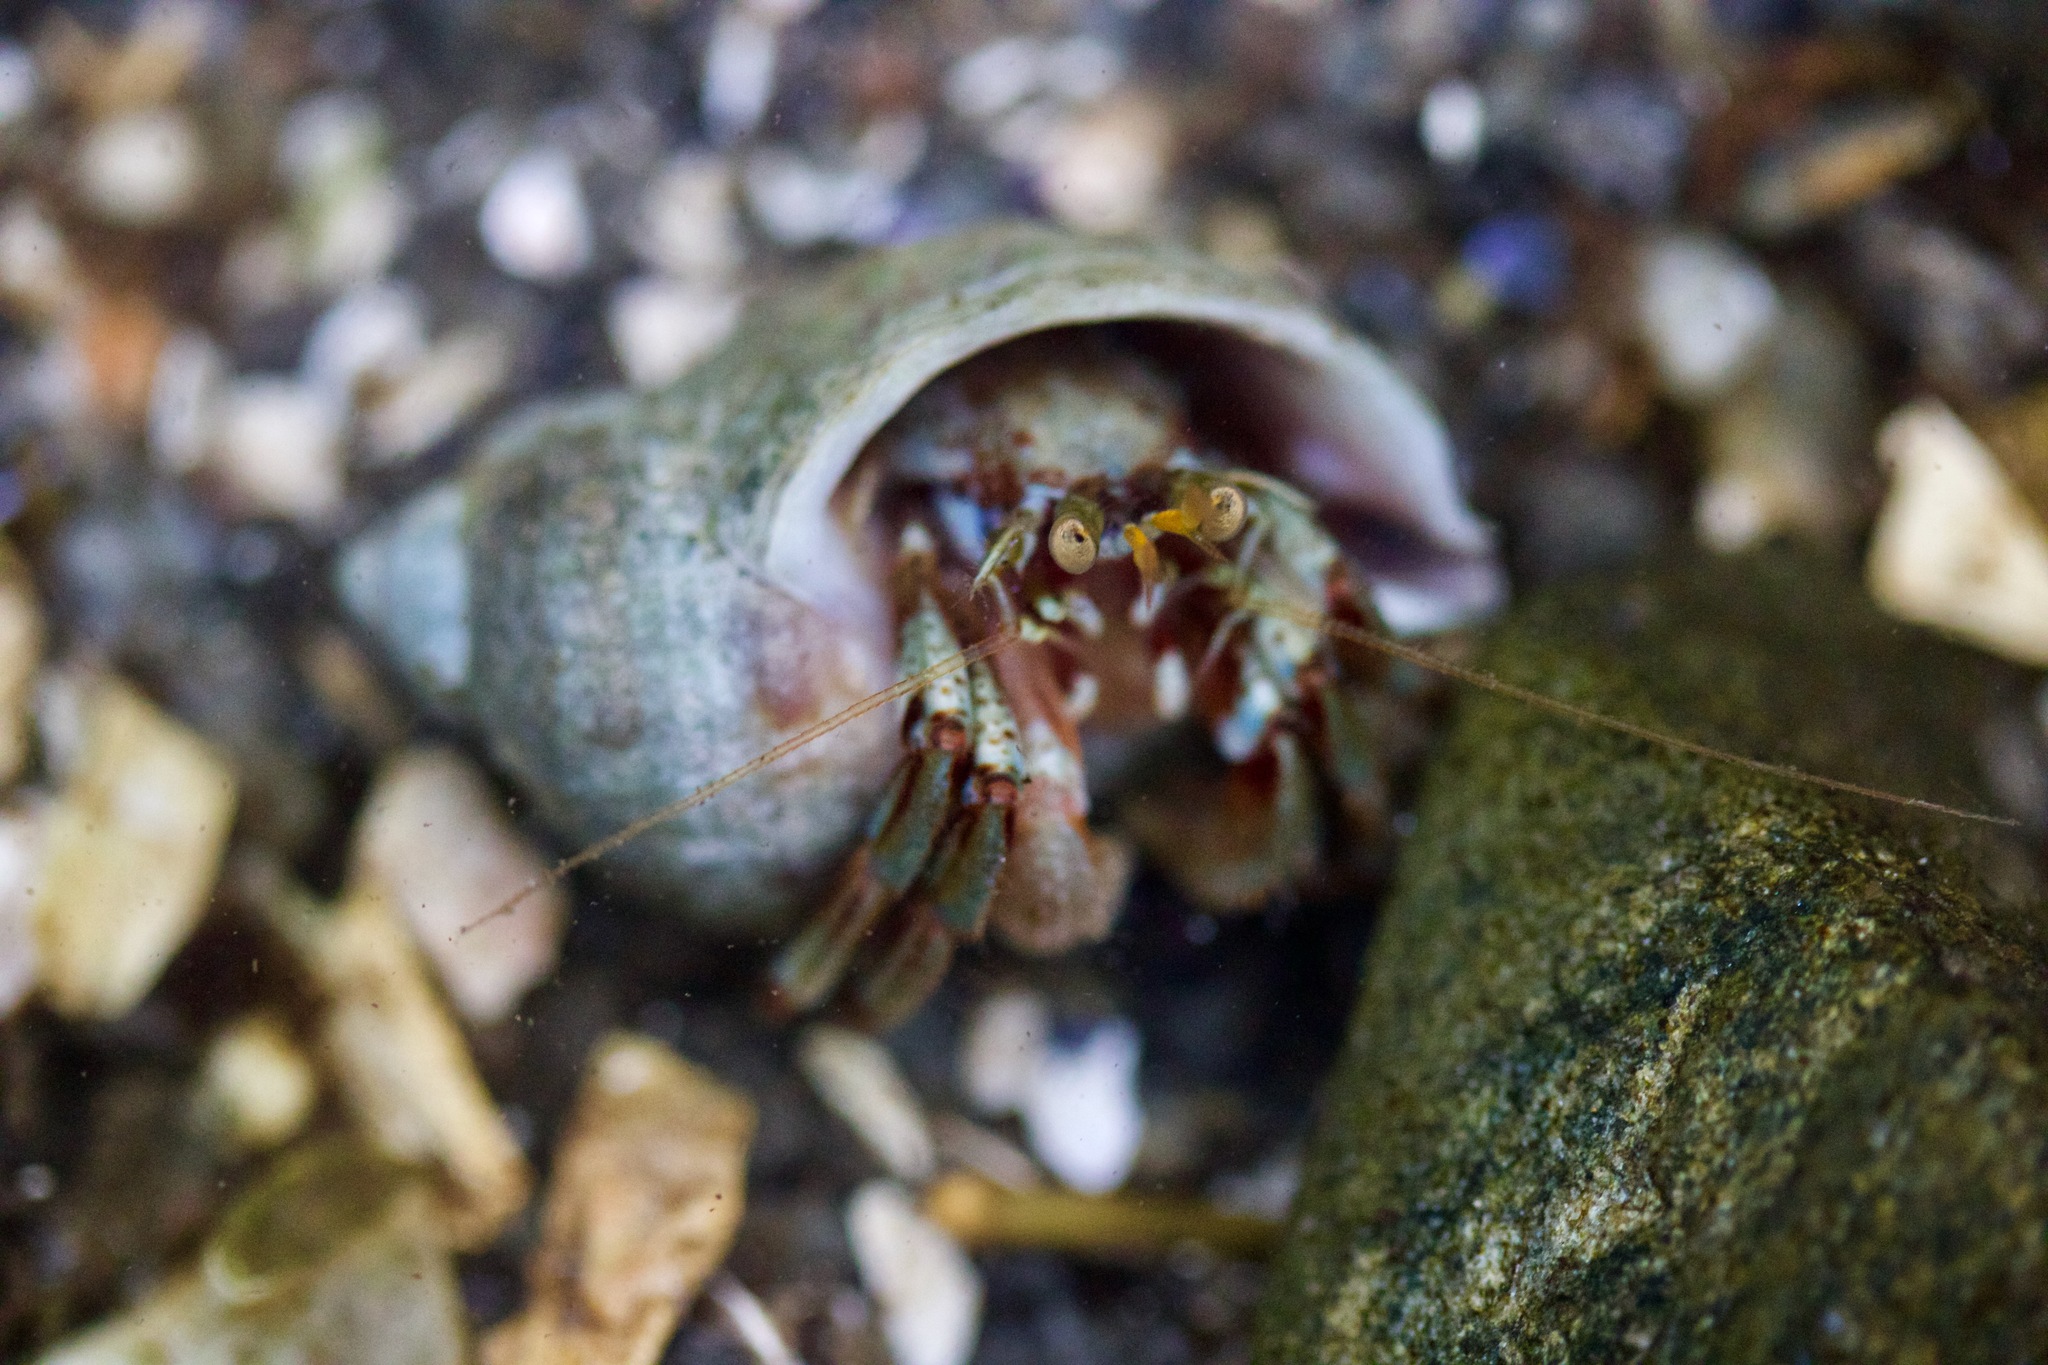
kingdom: Animalia
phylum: Arthropoda
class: Malacostraca
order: Decapoda
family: Paguridae
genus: Pagurus
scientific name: Pagurus bernhardus
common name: Hermit crab
